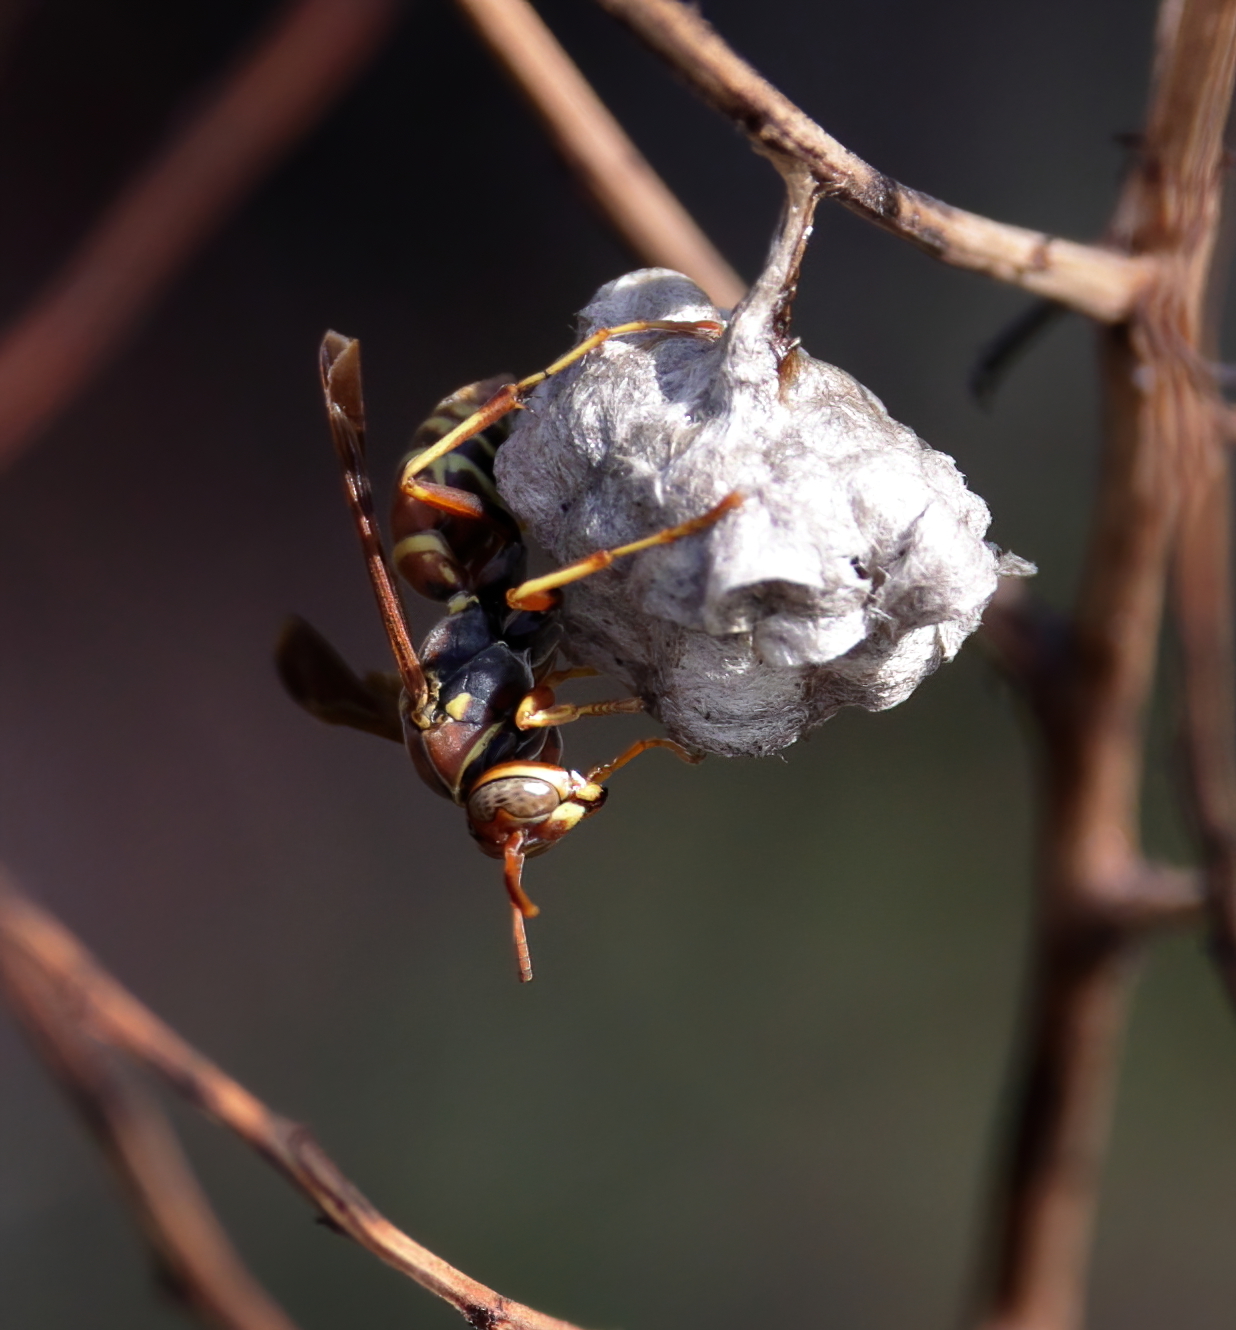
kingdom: Animalia
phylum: Arthropoda
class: Insecta
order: Hymenoptera
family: Eumenidae
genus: Polistes
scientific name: Polistes dorsalis
